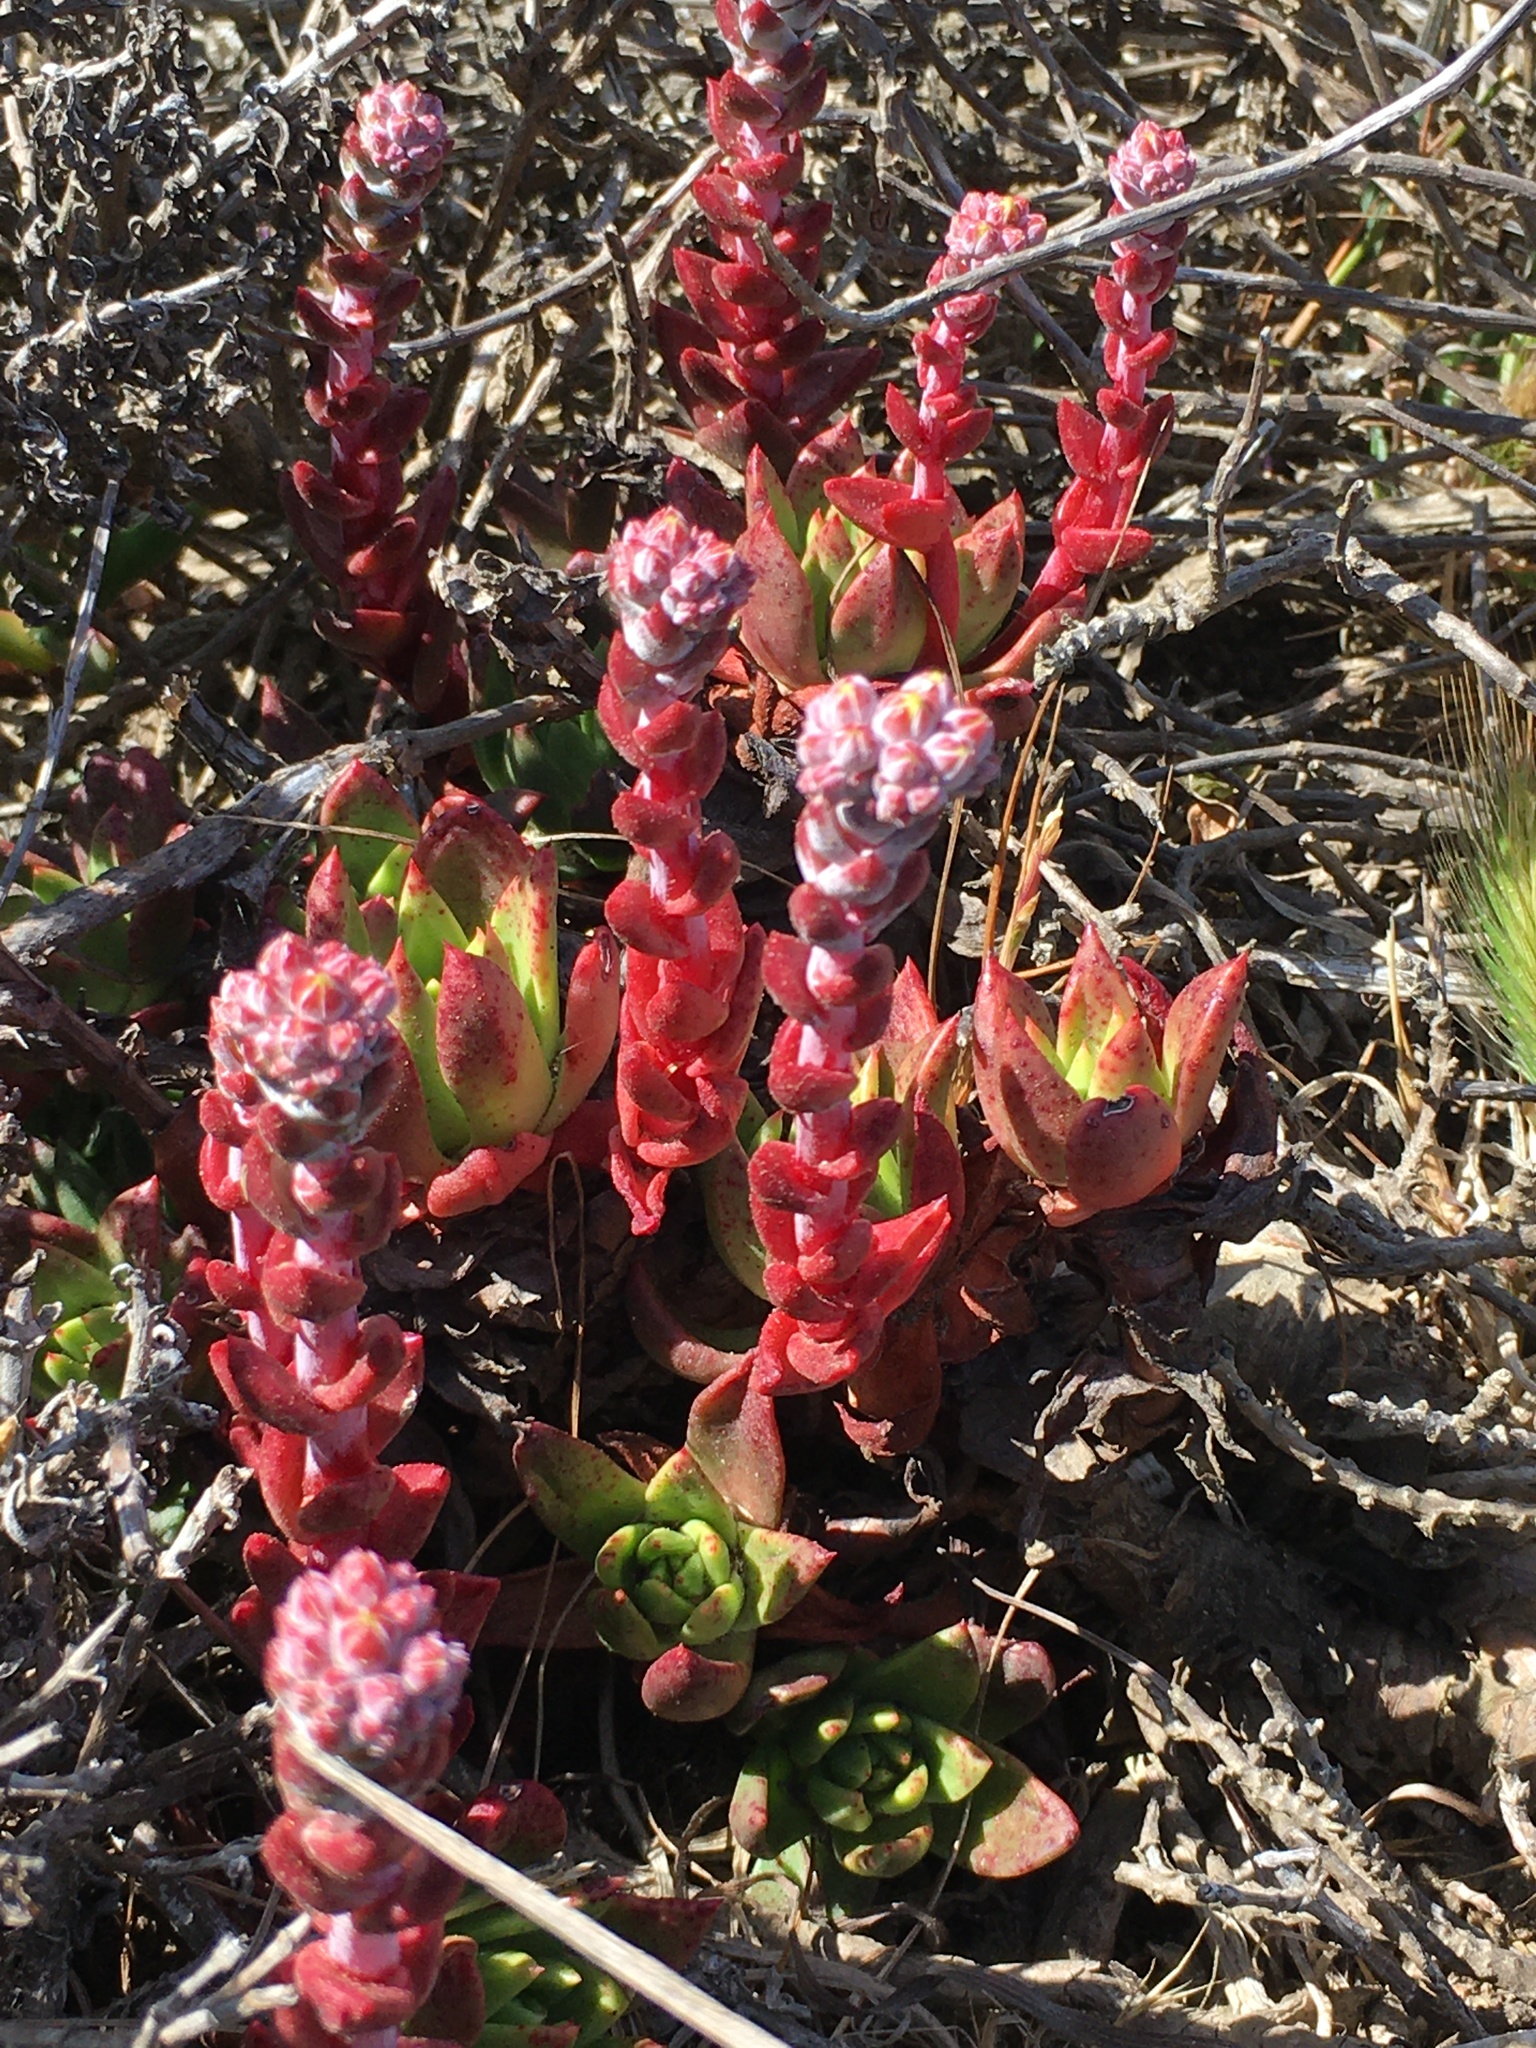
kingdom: Plantae
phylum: Tracheophyta
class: Magnoliopsida
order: Saxifragales
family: Crassulaceae
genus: Dudleya
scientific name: Dudleya farinosa
